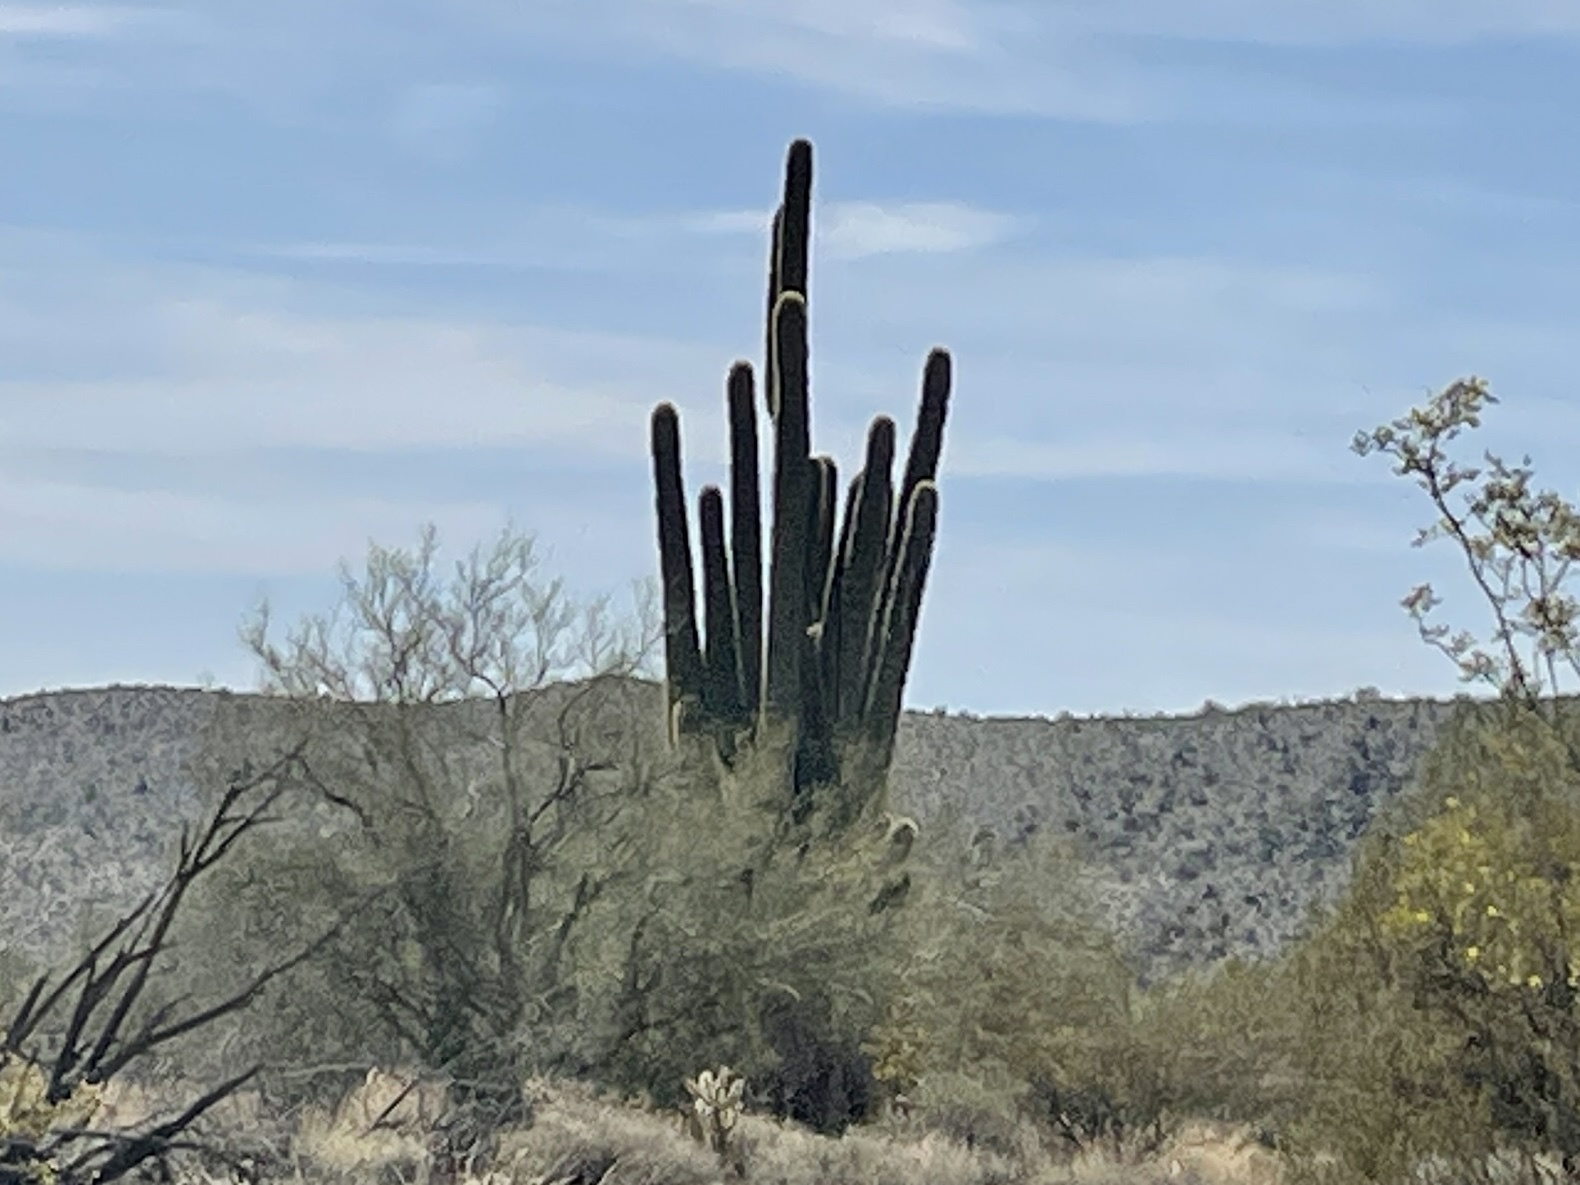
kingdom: Plantae
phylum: Tracheophyta
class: Magnoliopsida
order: Caryophyllales
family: Cactaceae
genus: Carnegiea
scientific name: Carnegiea gigantea
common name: Saguaro
